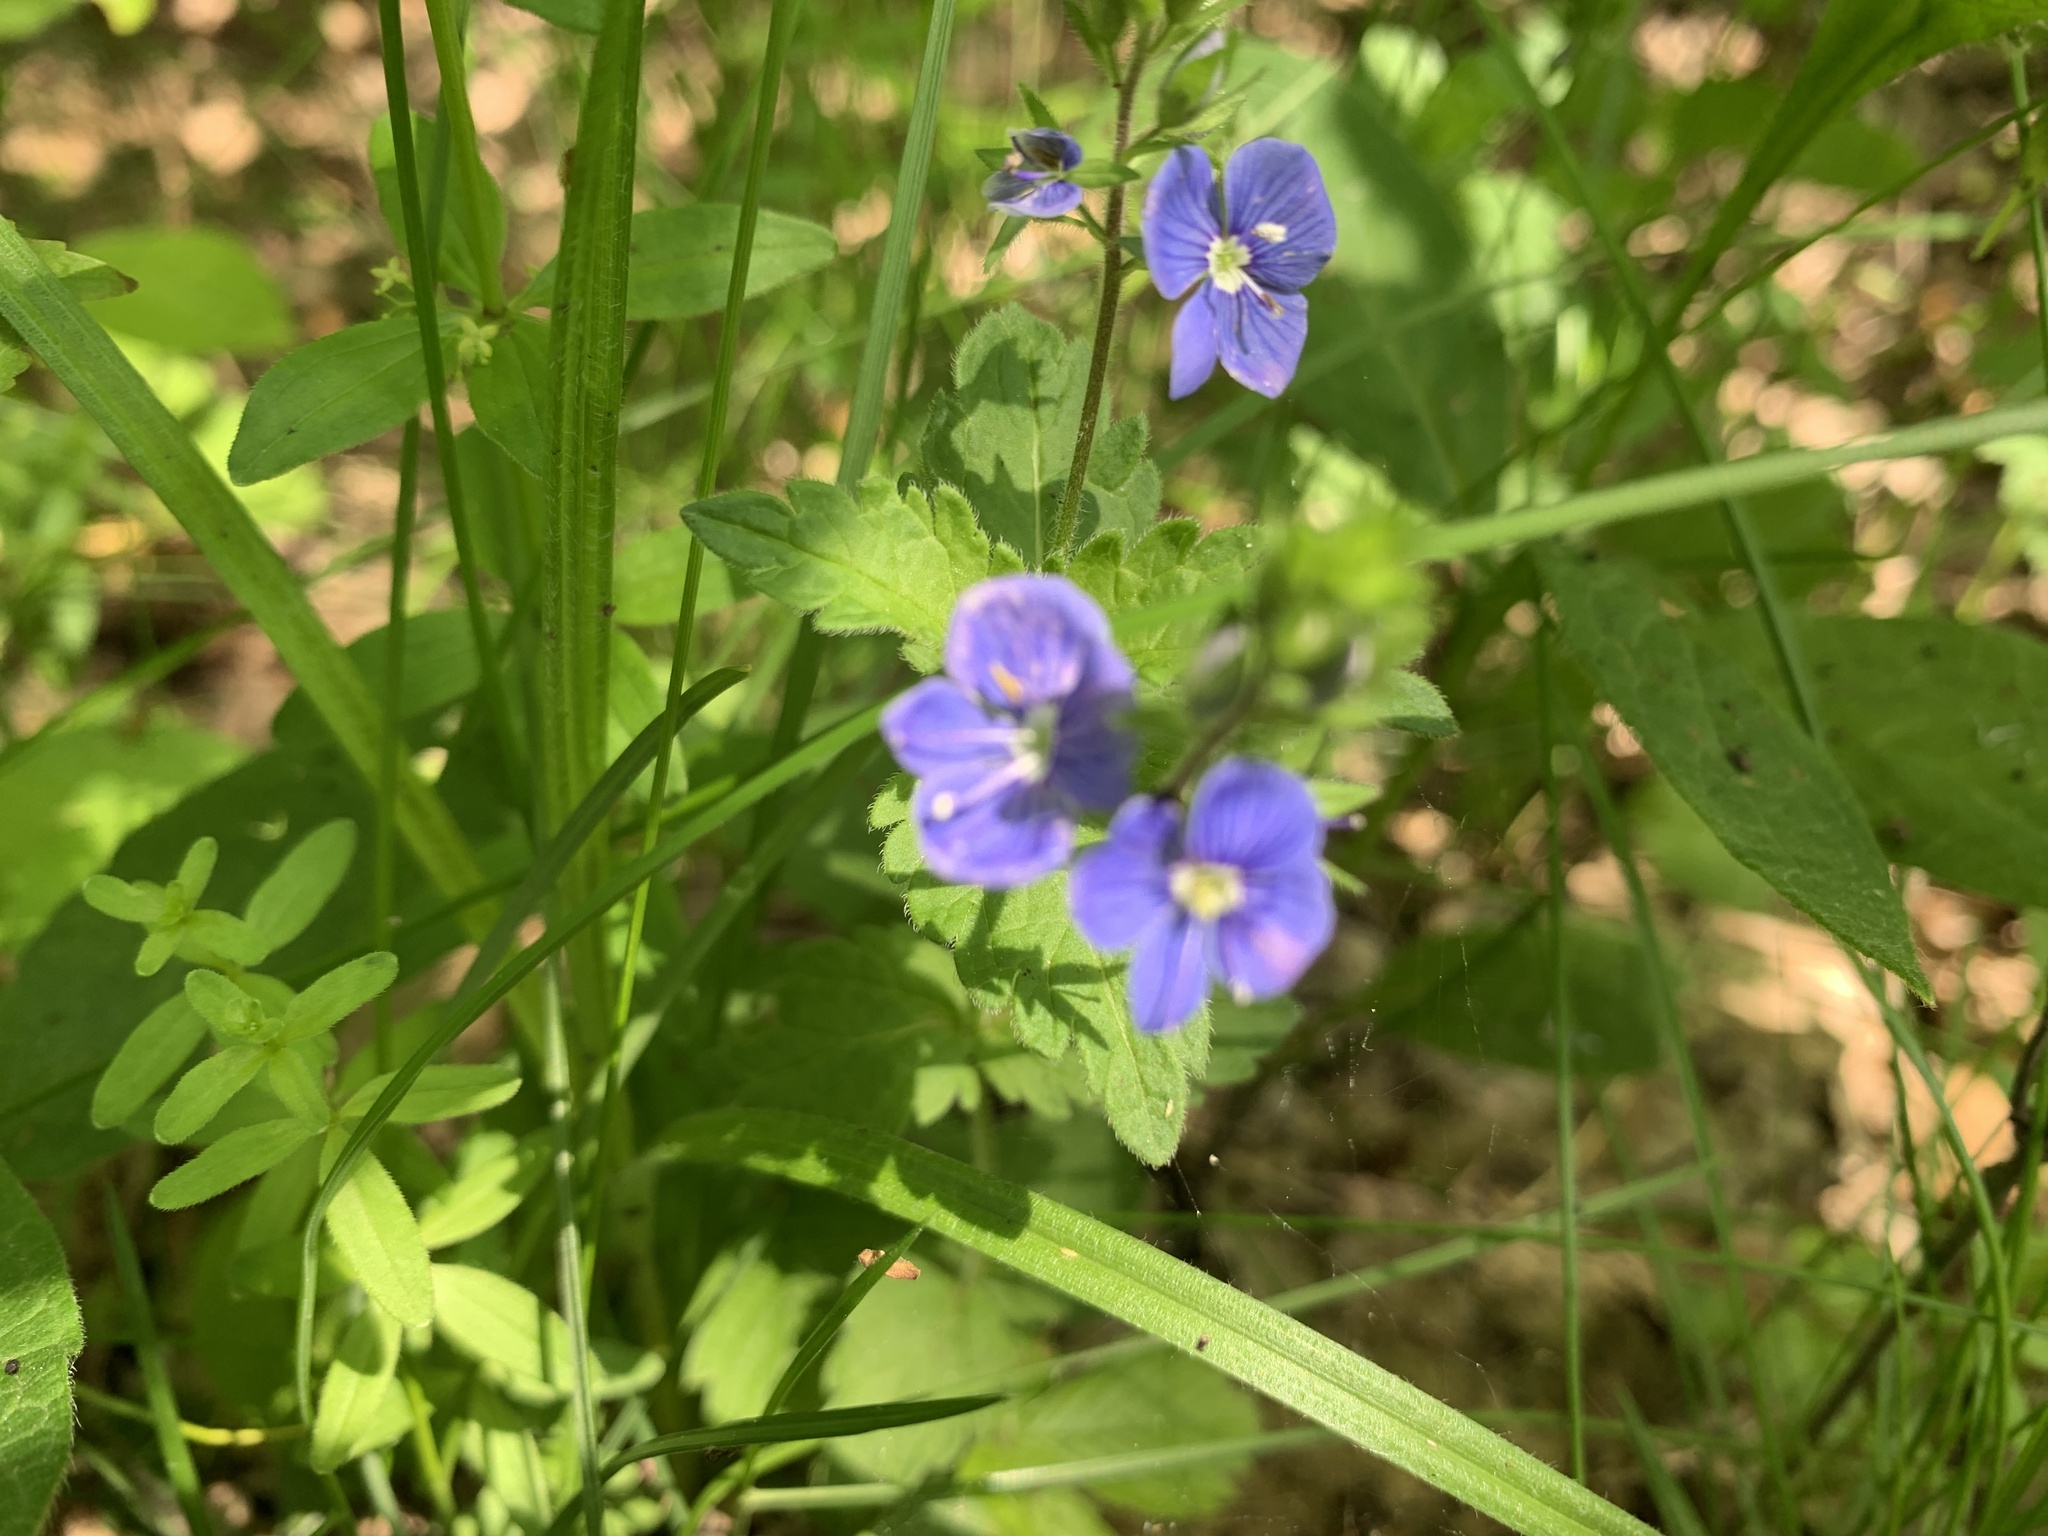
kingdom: Plantae
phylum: Tracheophyta
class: Magnoliopsida
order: Lamiales
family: Plantaginaceae
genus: Veronica
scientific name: Veronica chamaedrys
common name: Germander speedwell
